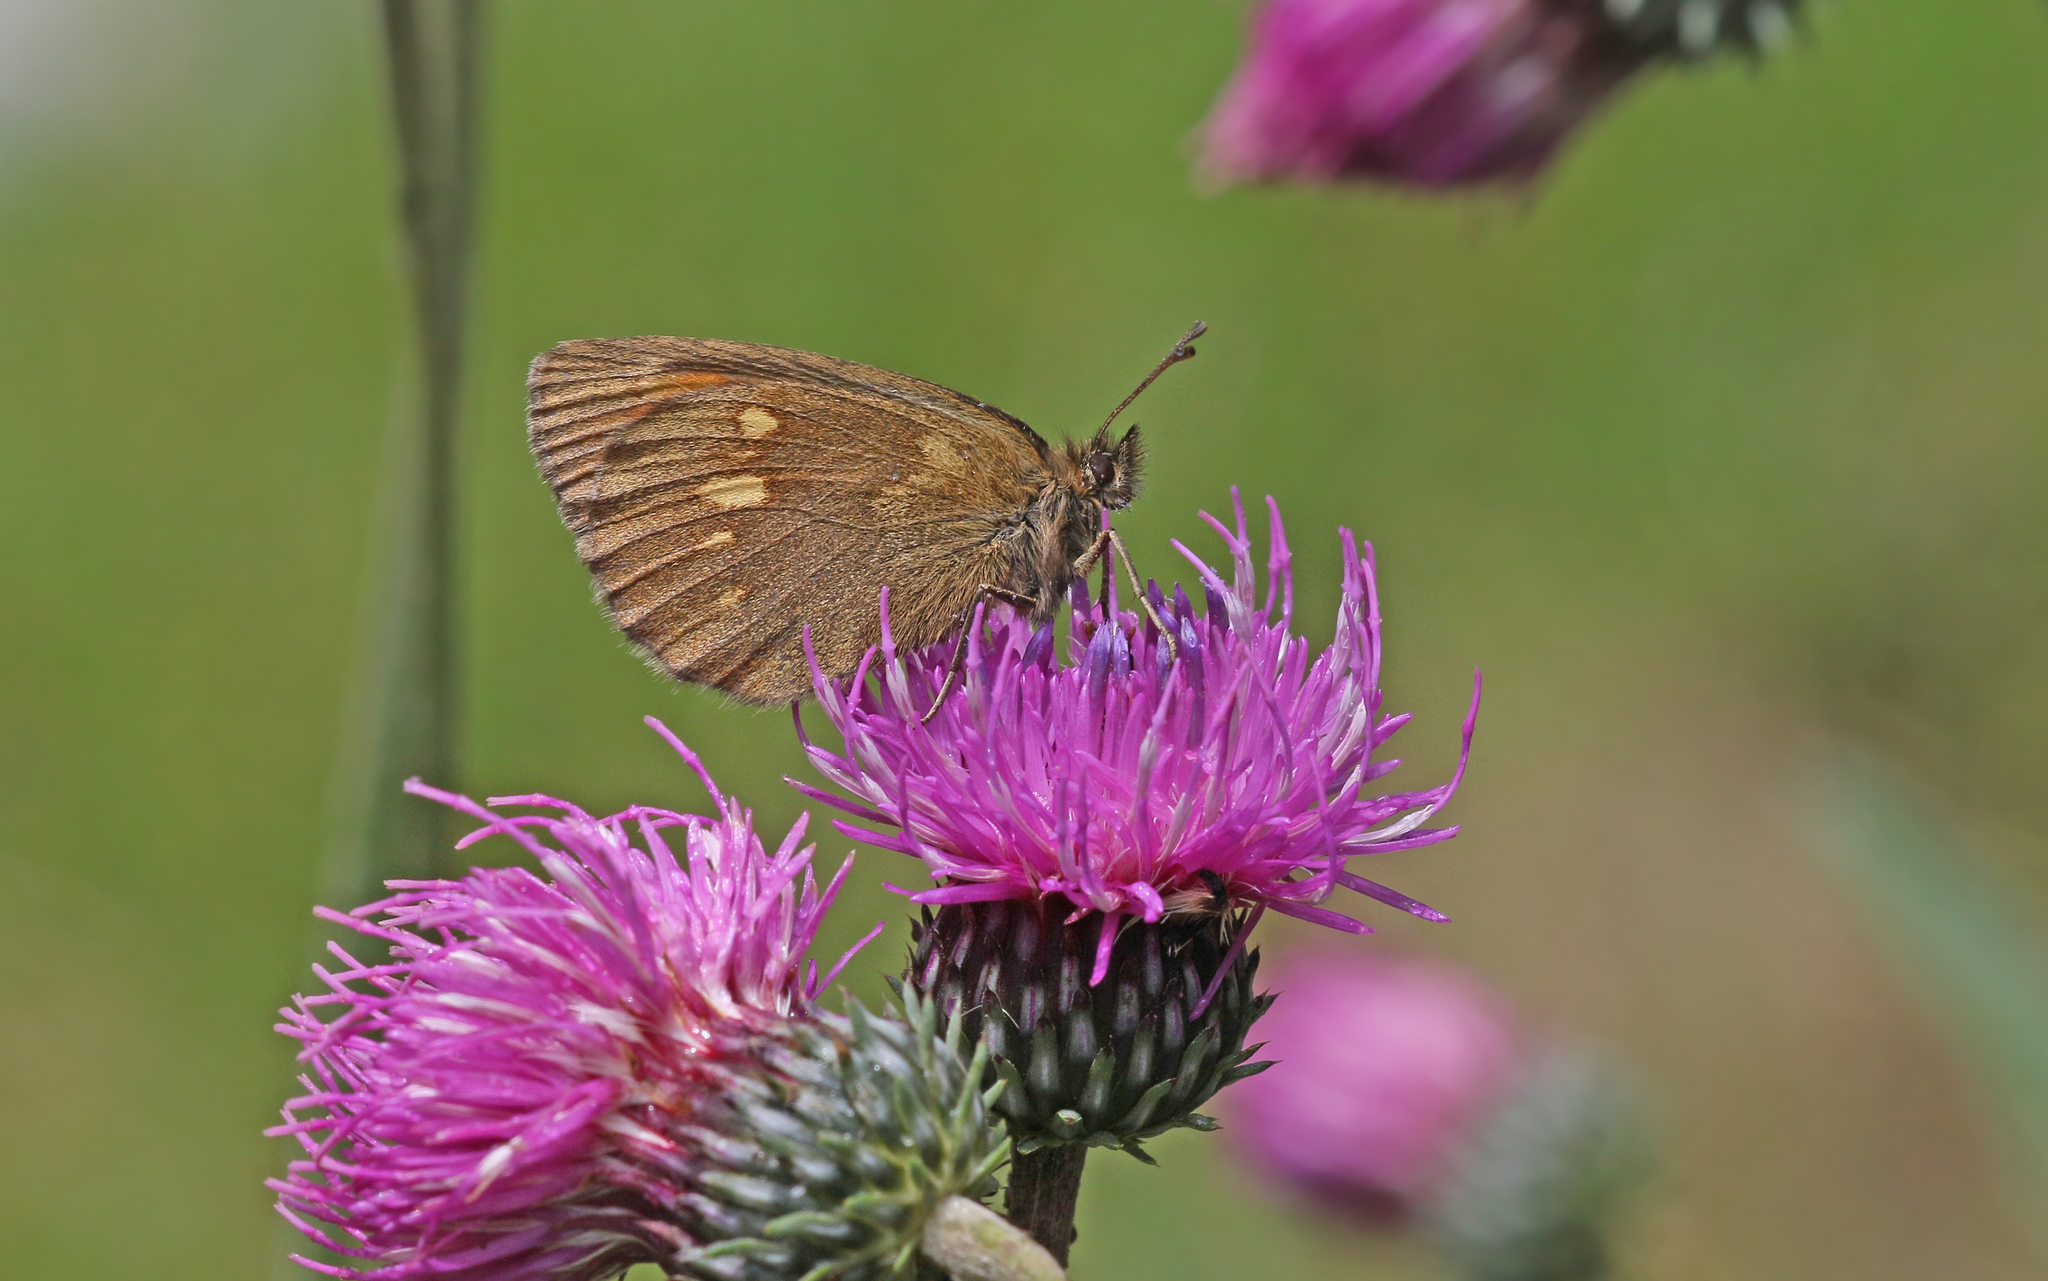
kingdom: Animalia
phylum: Arthropoda
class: Insecta
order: Lepidoptera
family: Nymphalidae
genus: Erebia
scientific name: Erebia manto
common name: Yellow-spotted ringlet
